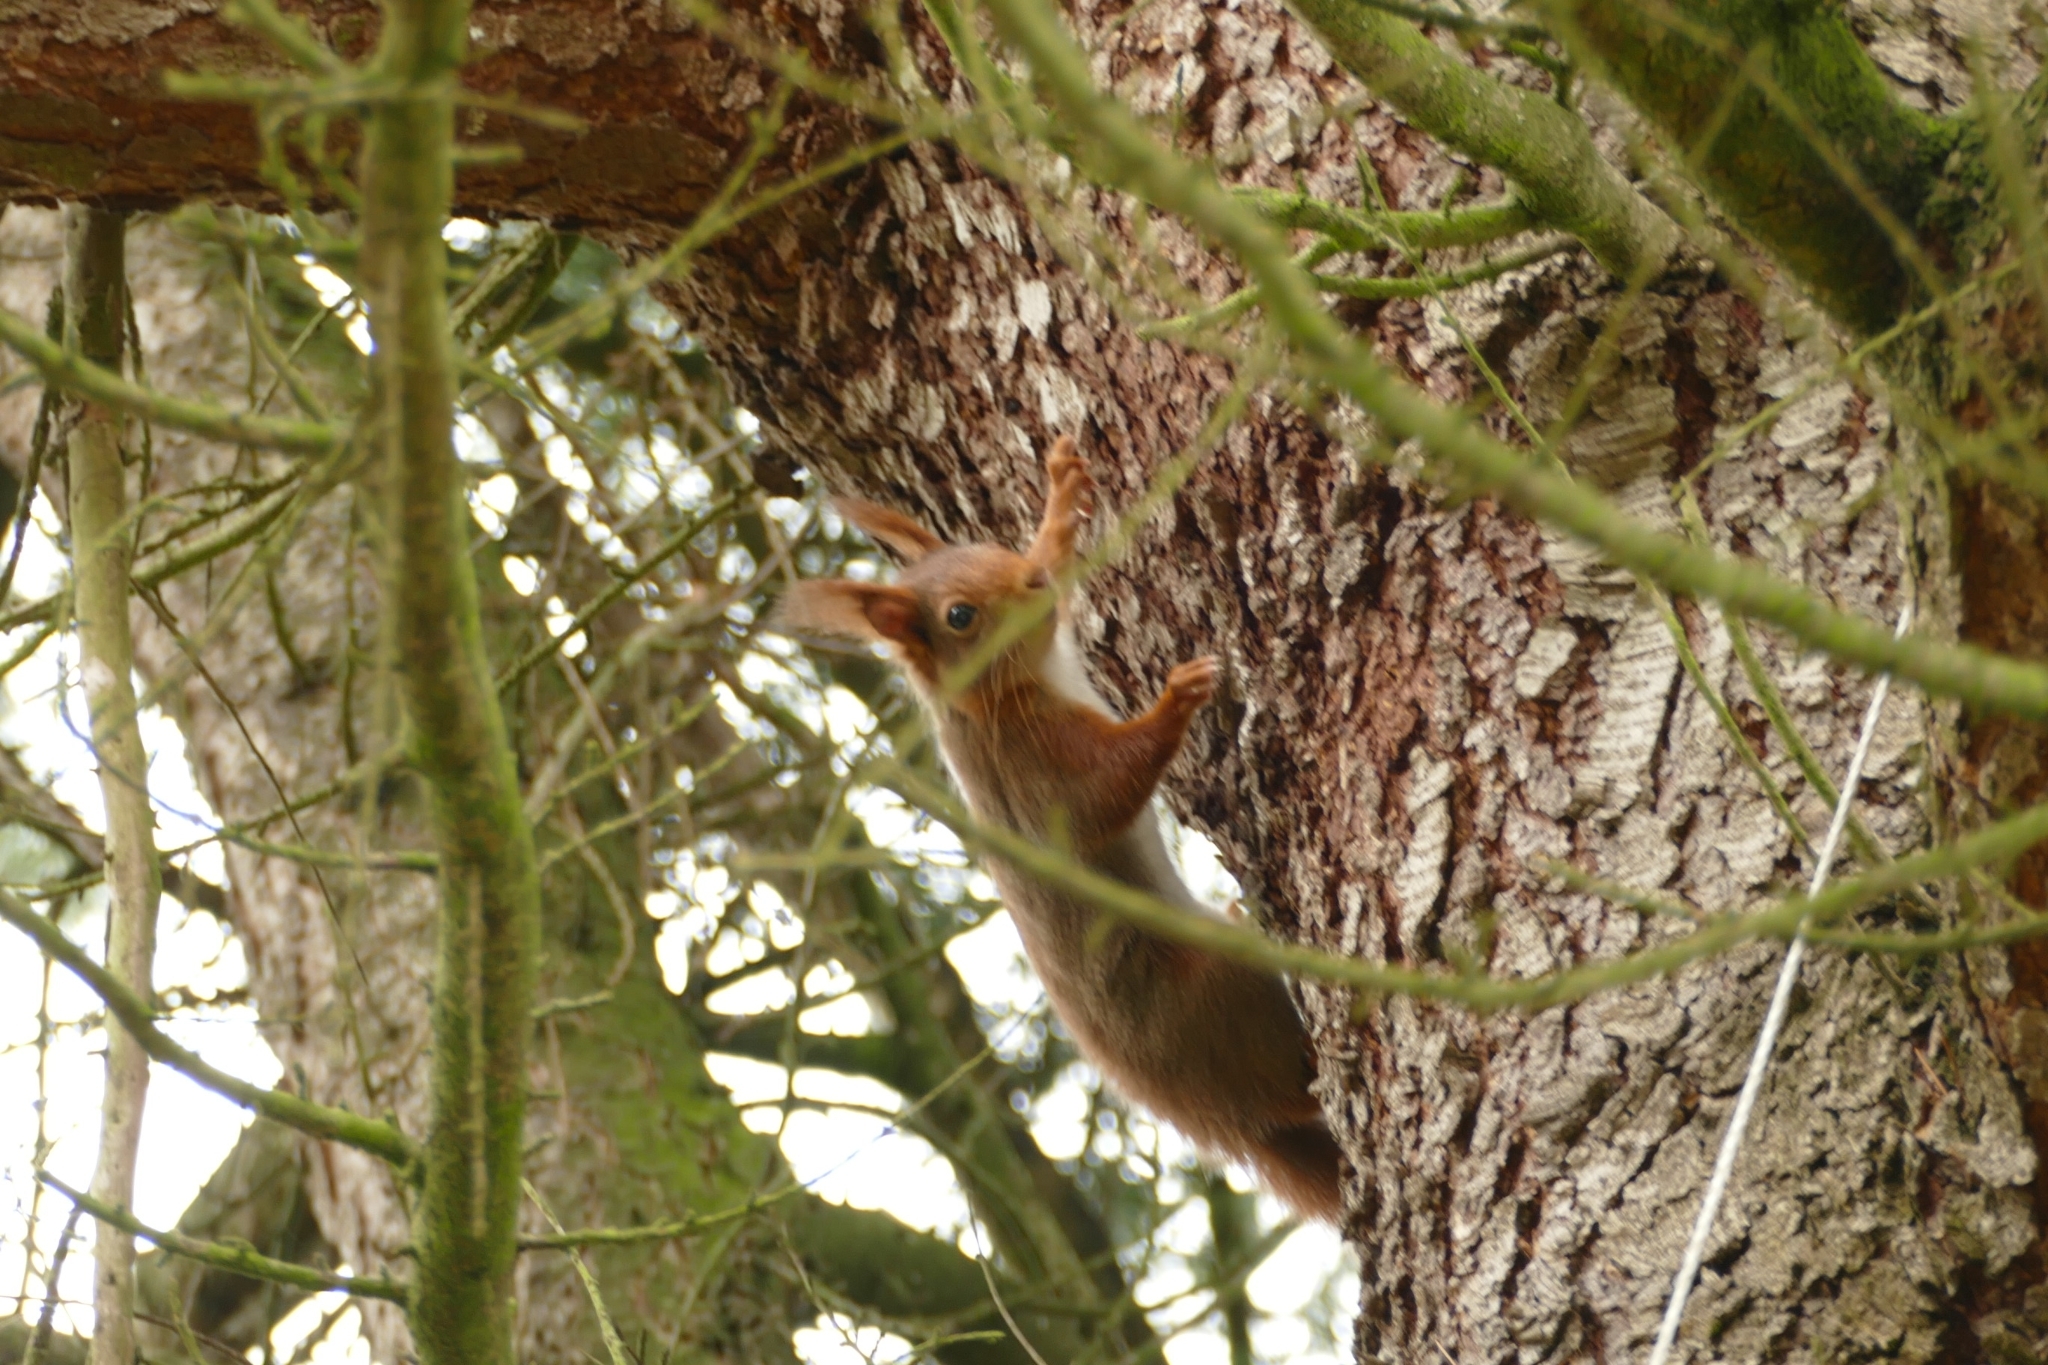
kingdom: Animalia
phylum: Chordata
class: Mammalia
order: Rodentia
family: Sciuridae
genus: Sciurus
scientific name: Sciurus vulgaris
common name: Eurasian red squirrel
